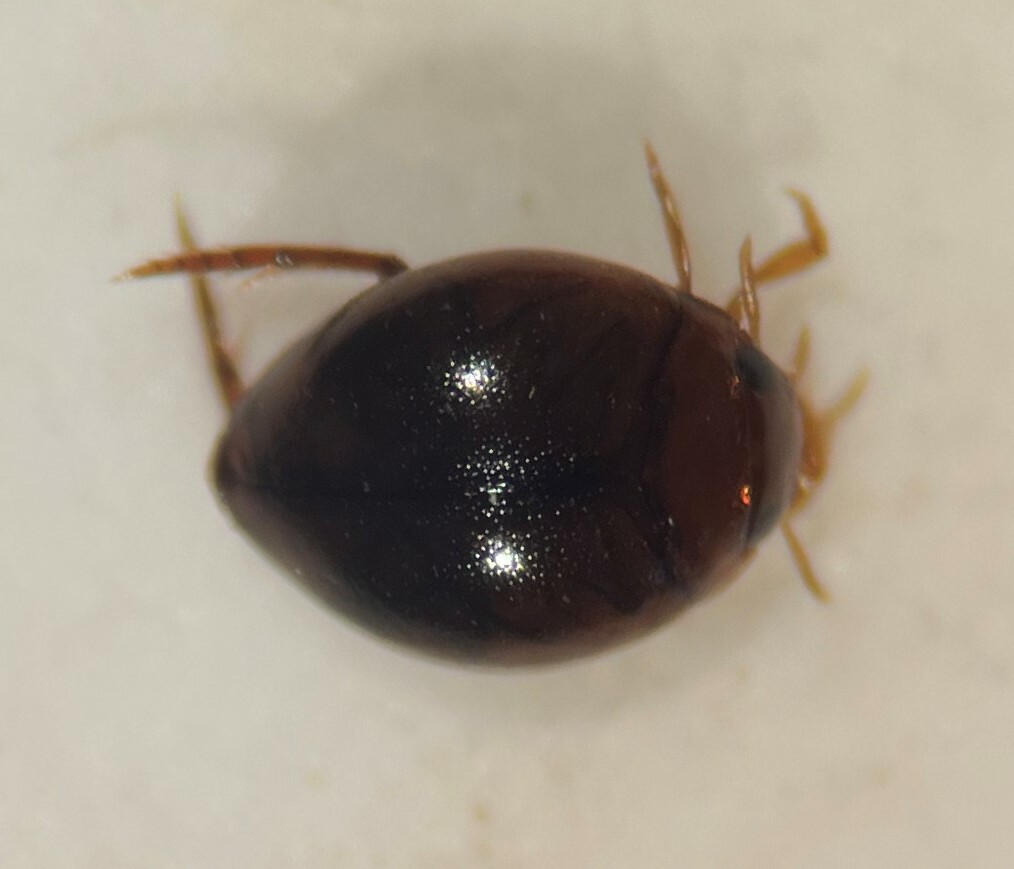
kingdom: Animalia
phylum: Arthropoda
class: Insecta
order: Coleoptera
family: Dytiscidae
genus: Desmopachria
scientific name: Desmopachria convexa
